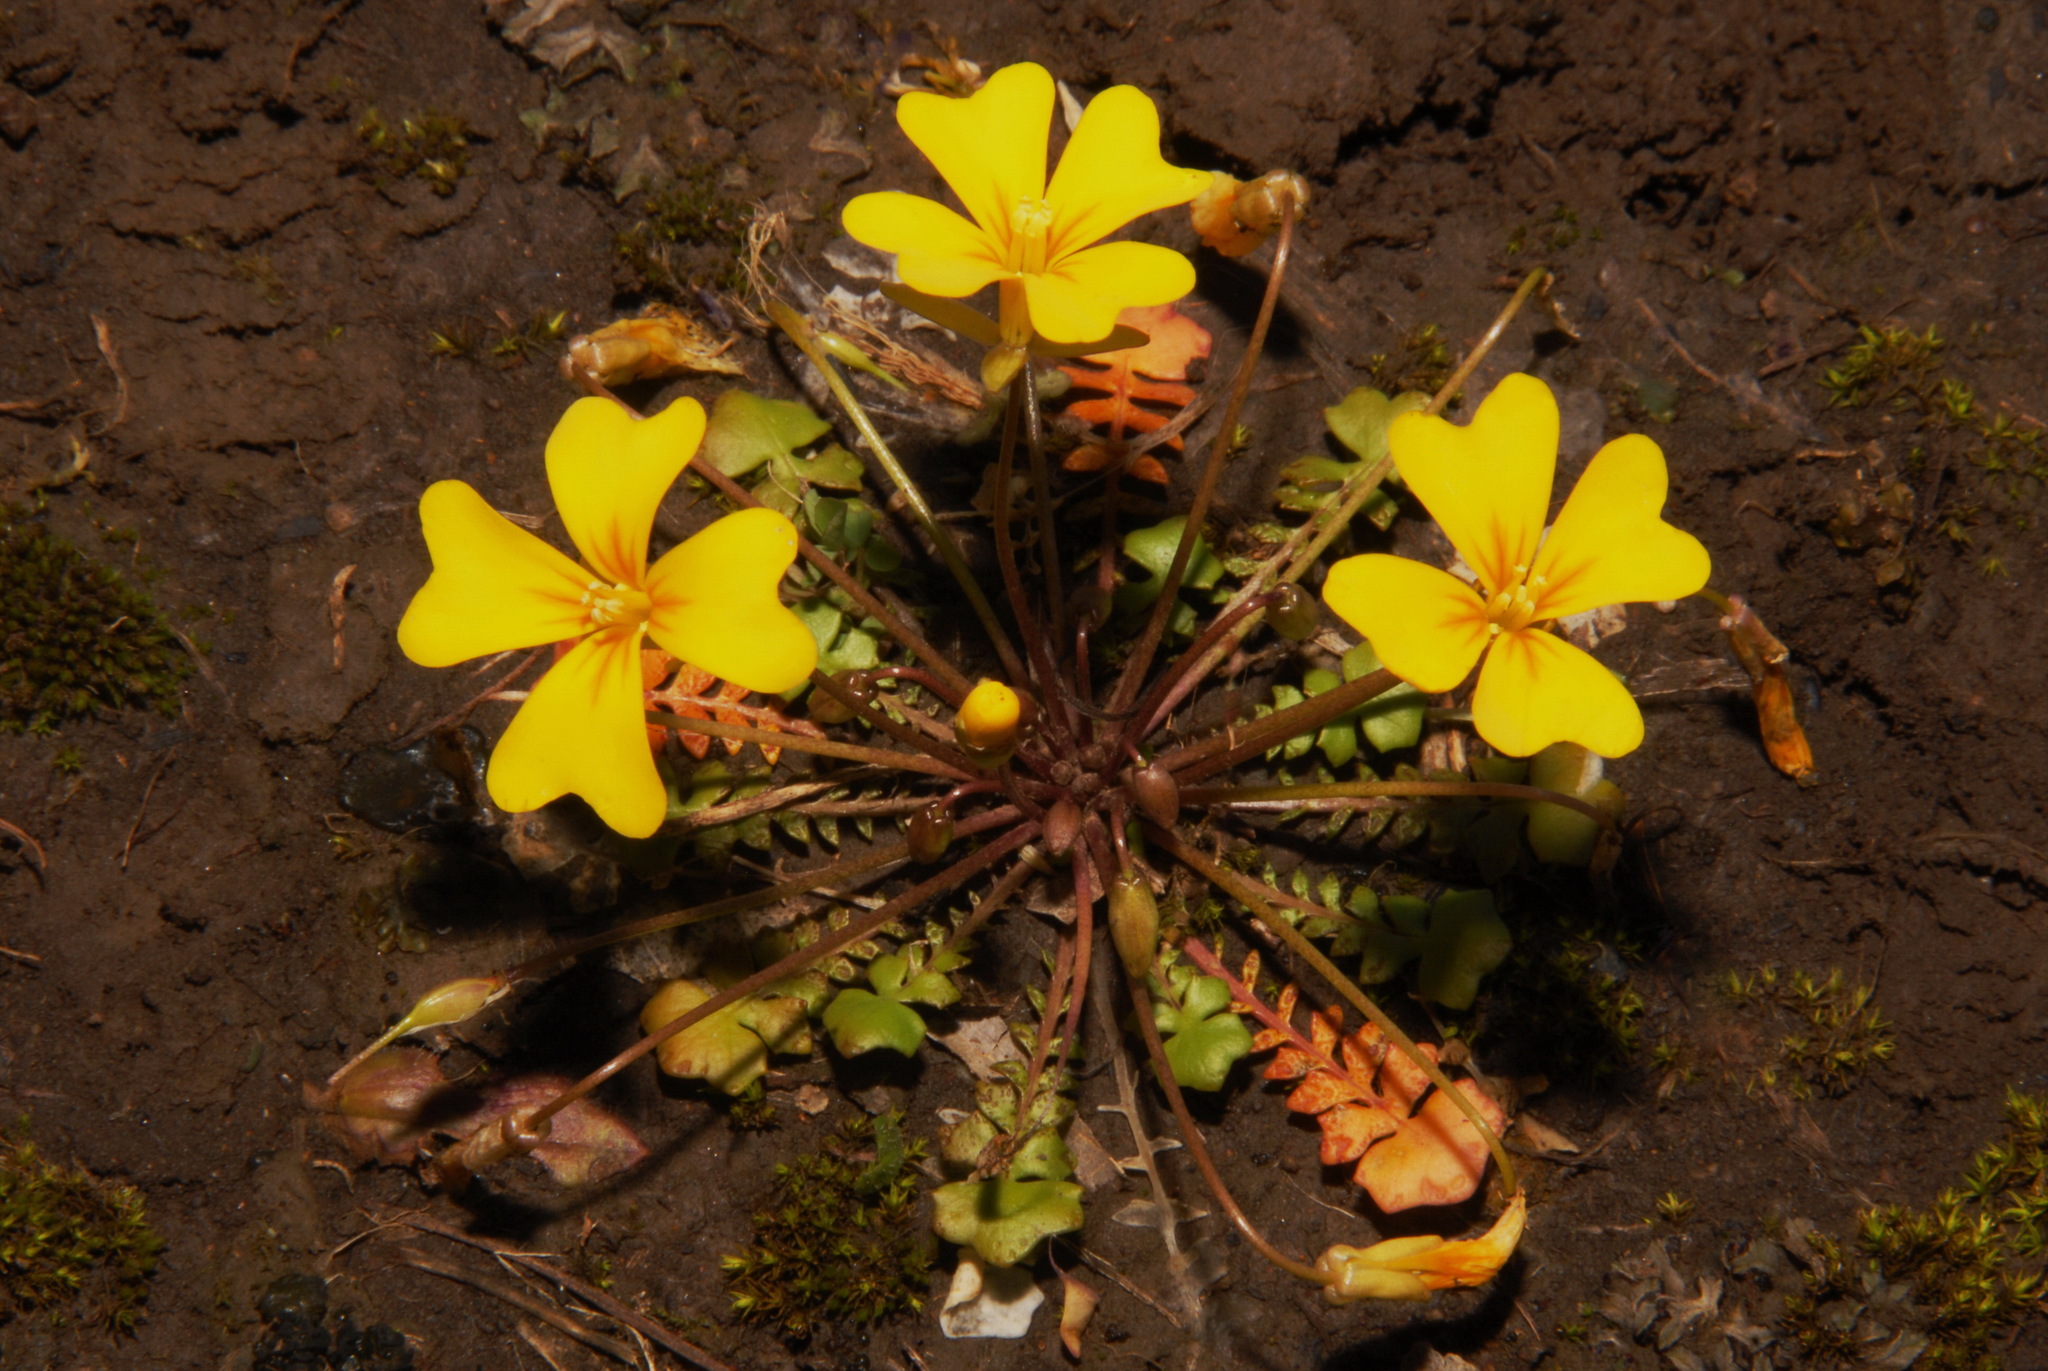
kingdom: Plantae
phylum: Tracheophyta
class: Magnoliopsida
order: Brassicales
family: Brassicaceae
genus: Leavenworthia
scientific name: Leavenworthia crassa
